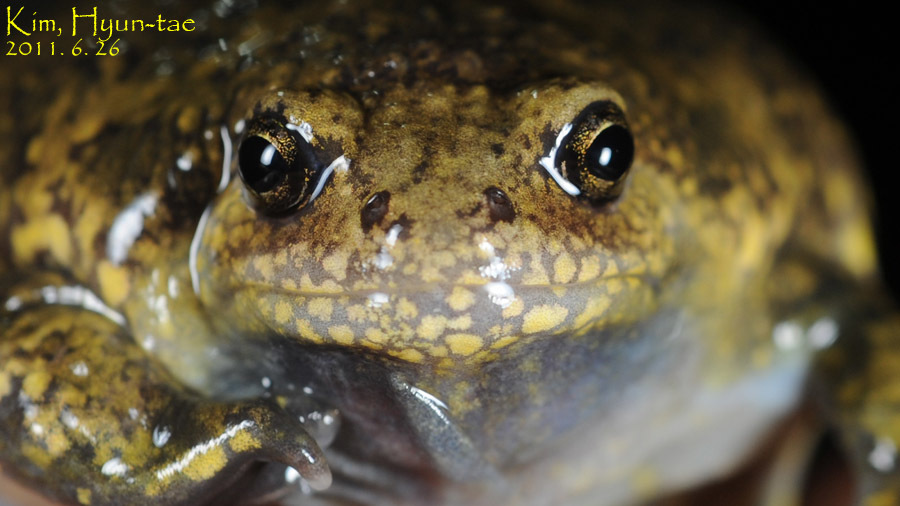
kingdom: Animalia
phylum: Chordata
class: Amphibia
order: Anura
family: Microhylidae
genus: Kaloula
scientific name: Kaloula borealis
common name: Boreal digging frog
